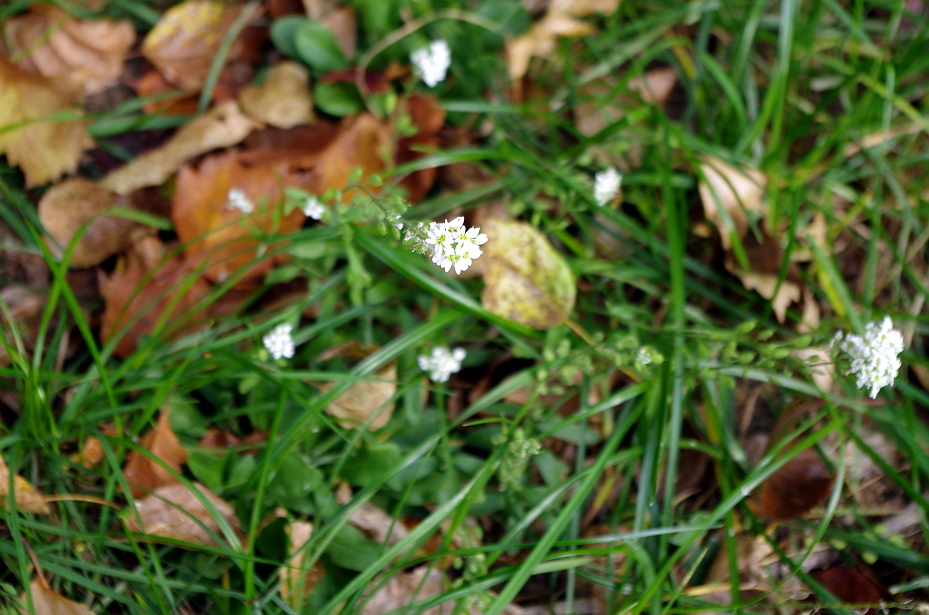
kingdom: Plantae
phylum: Tracheophyta
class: Magnoliopsida
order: Brassicales
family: Brassicaceae
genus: Berteroa
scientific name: Berteroa incana
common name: Hoary alison
